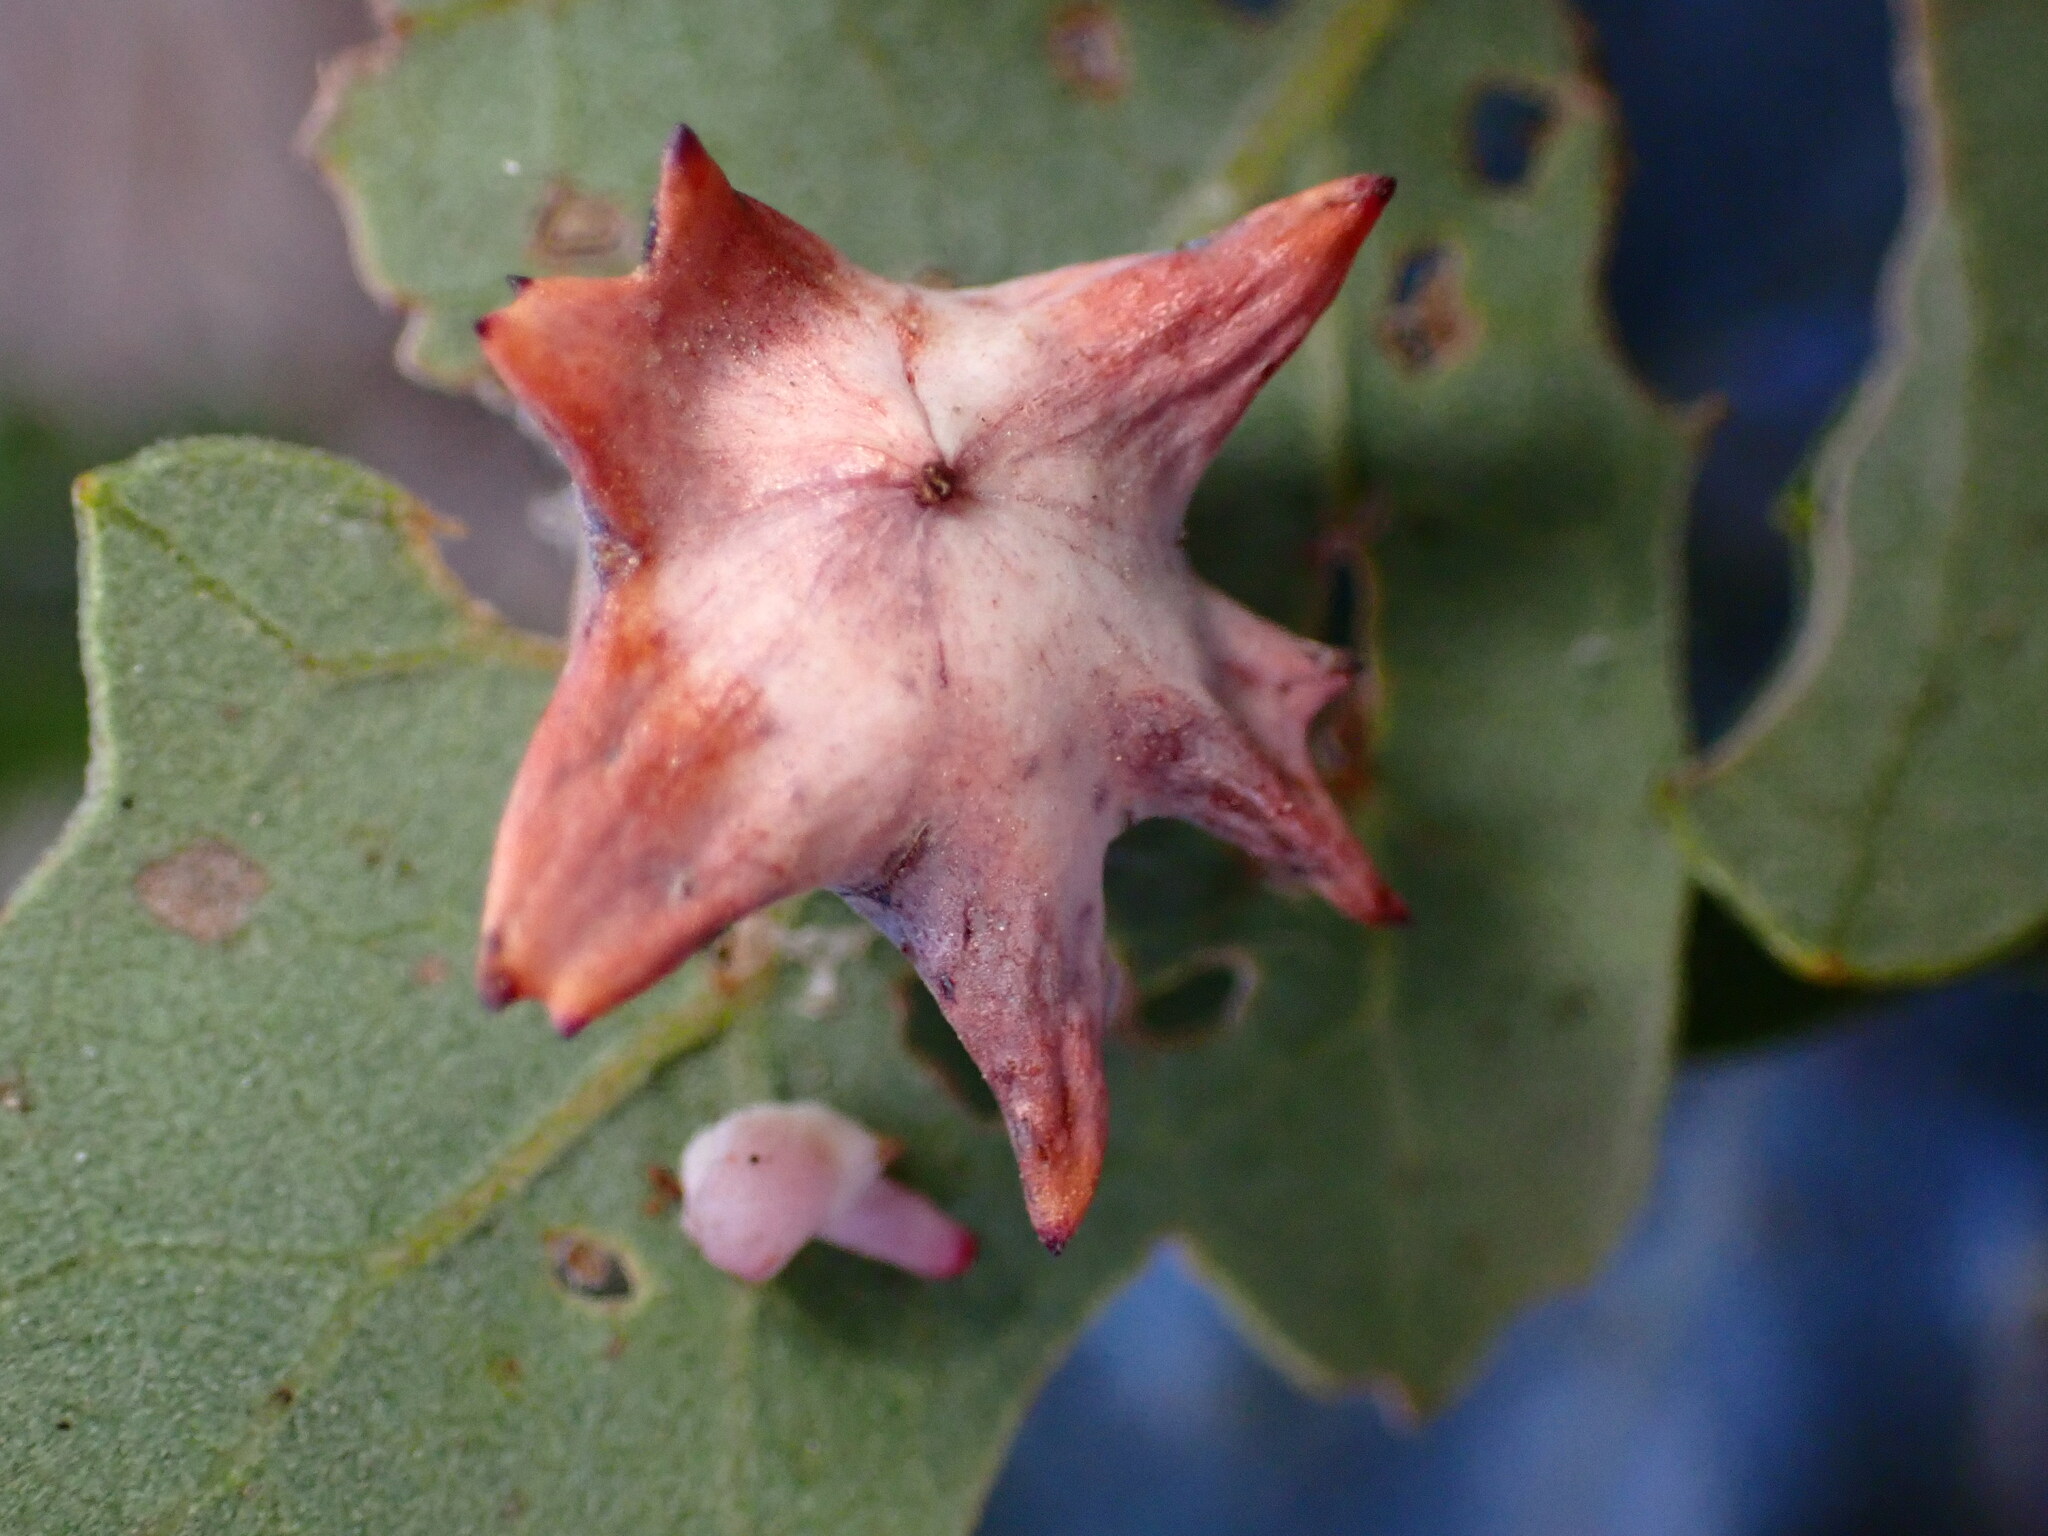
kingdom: Animalia
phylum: Arthropoda
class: Insecta
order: Hymenoptera
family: Cynipidae
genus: Cynips
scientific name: Cynips douglasi
